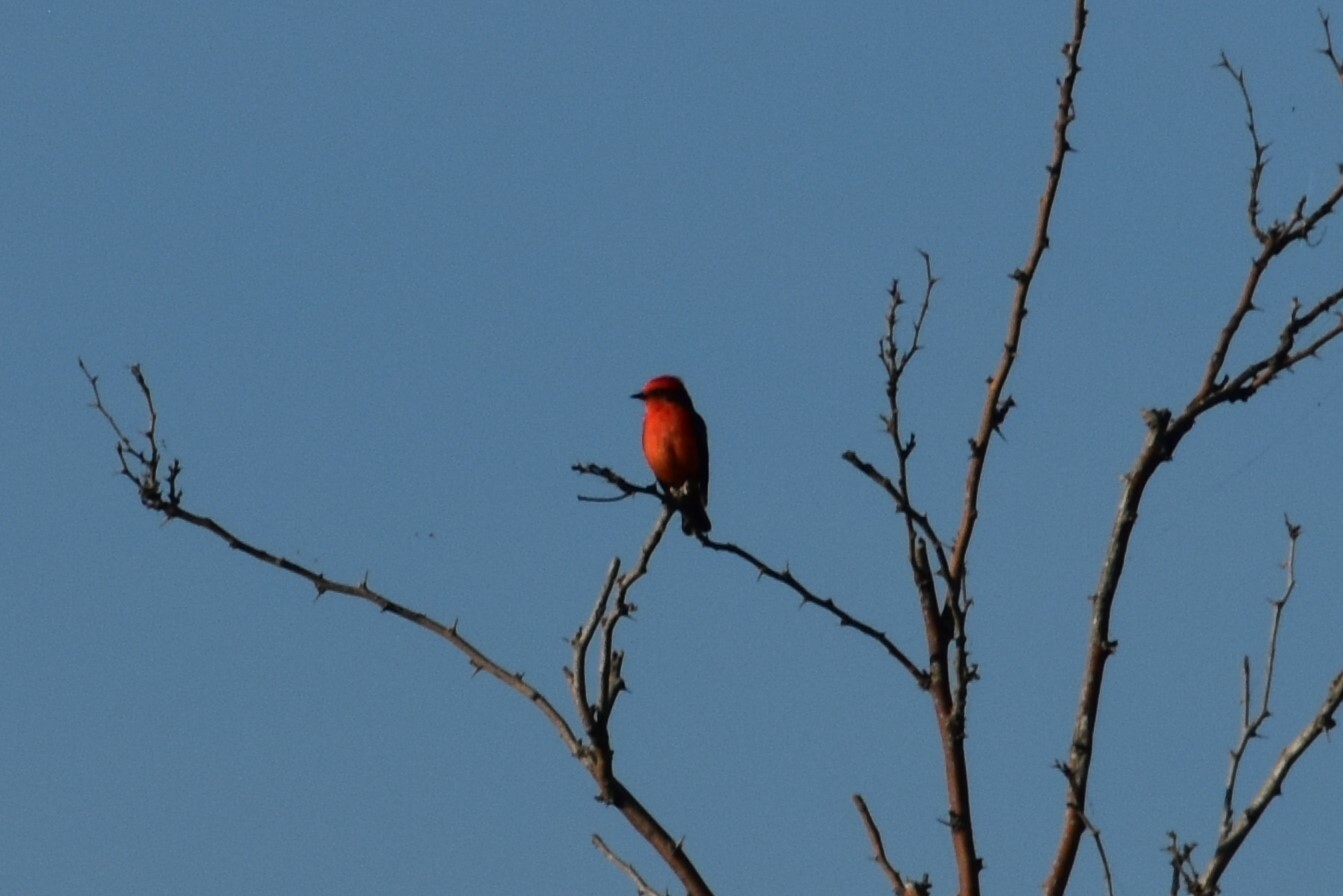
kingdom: Animalia
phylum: Chordata
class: Aves
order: Passeriformes
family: Tyrannidae
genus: Pyrocephalus
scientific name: Pyrocephalus rubinus
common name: Vermilion flycatcher
